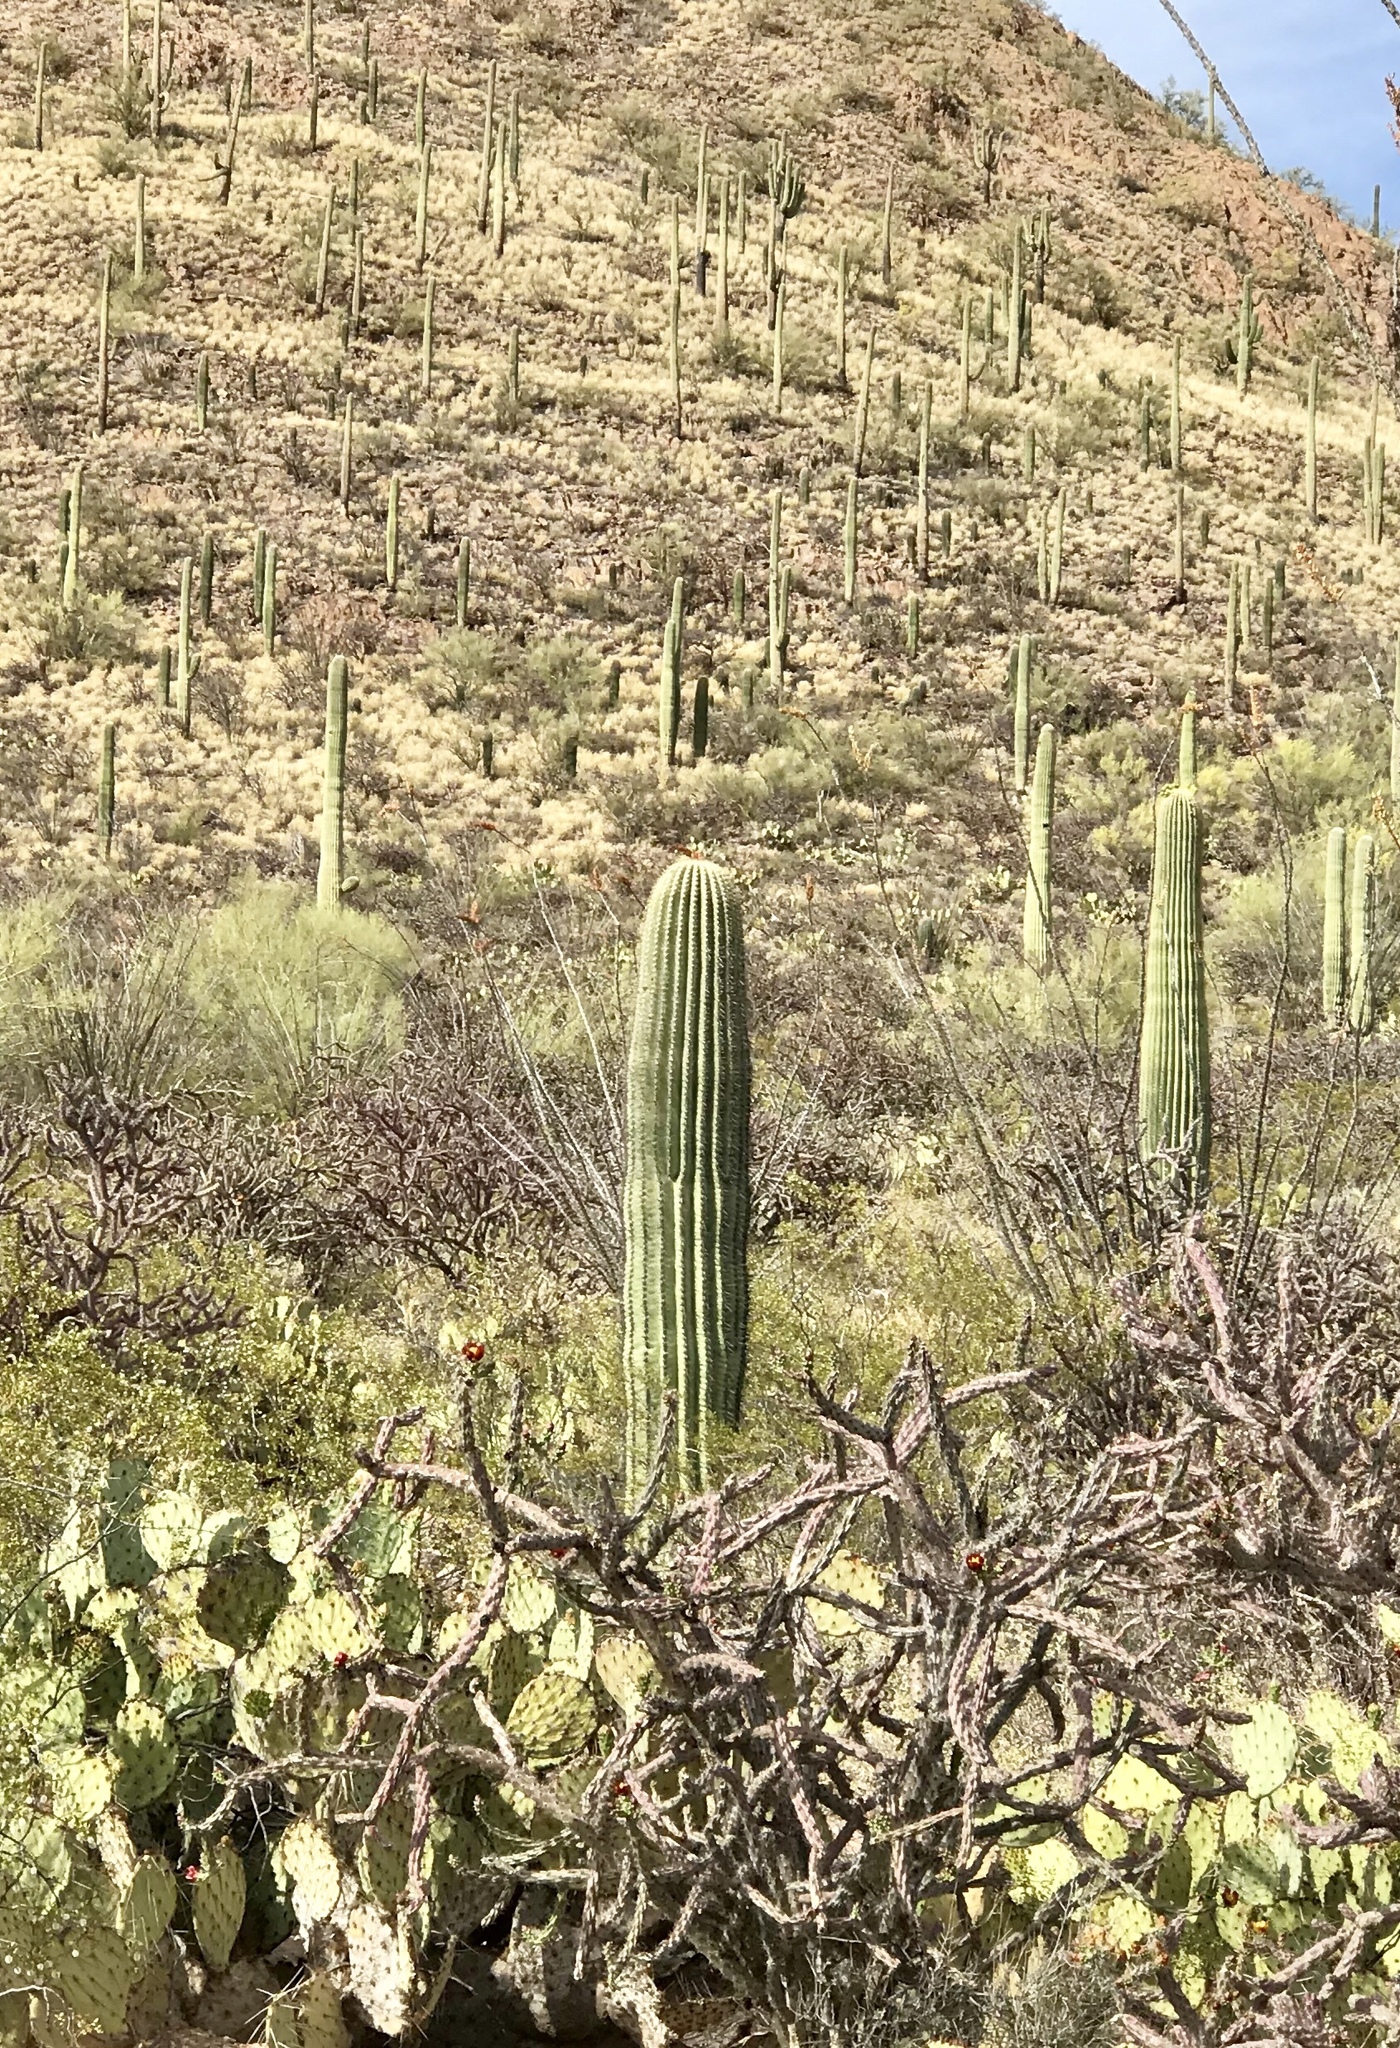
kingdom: Plantae
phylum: Tracheophyta
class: Magnoliopsida
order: Caryophyllales
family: Cactaceae
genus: Carnegiea
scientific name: Carnegiea gigantea
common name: Saguaro
